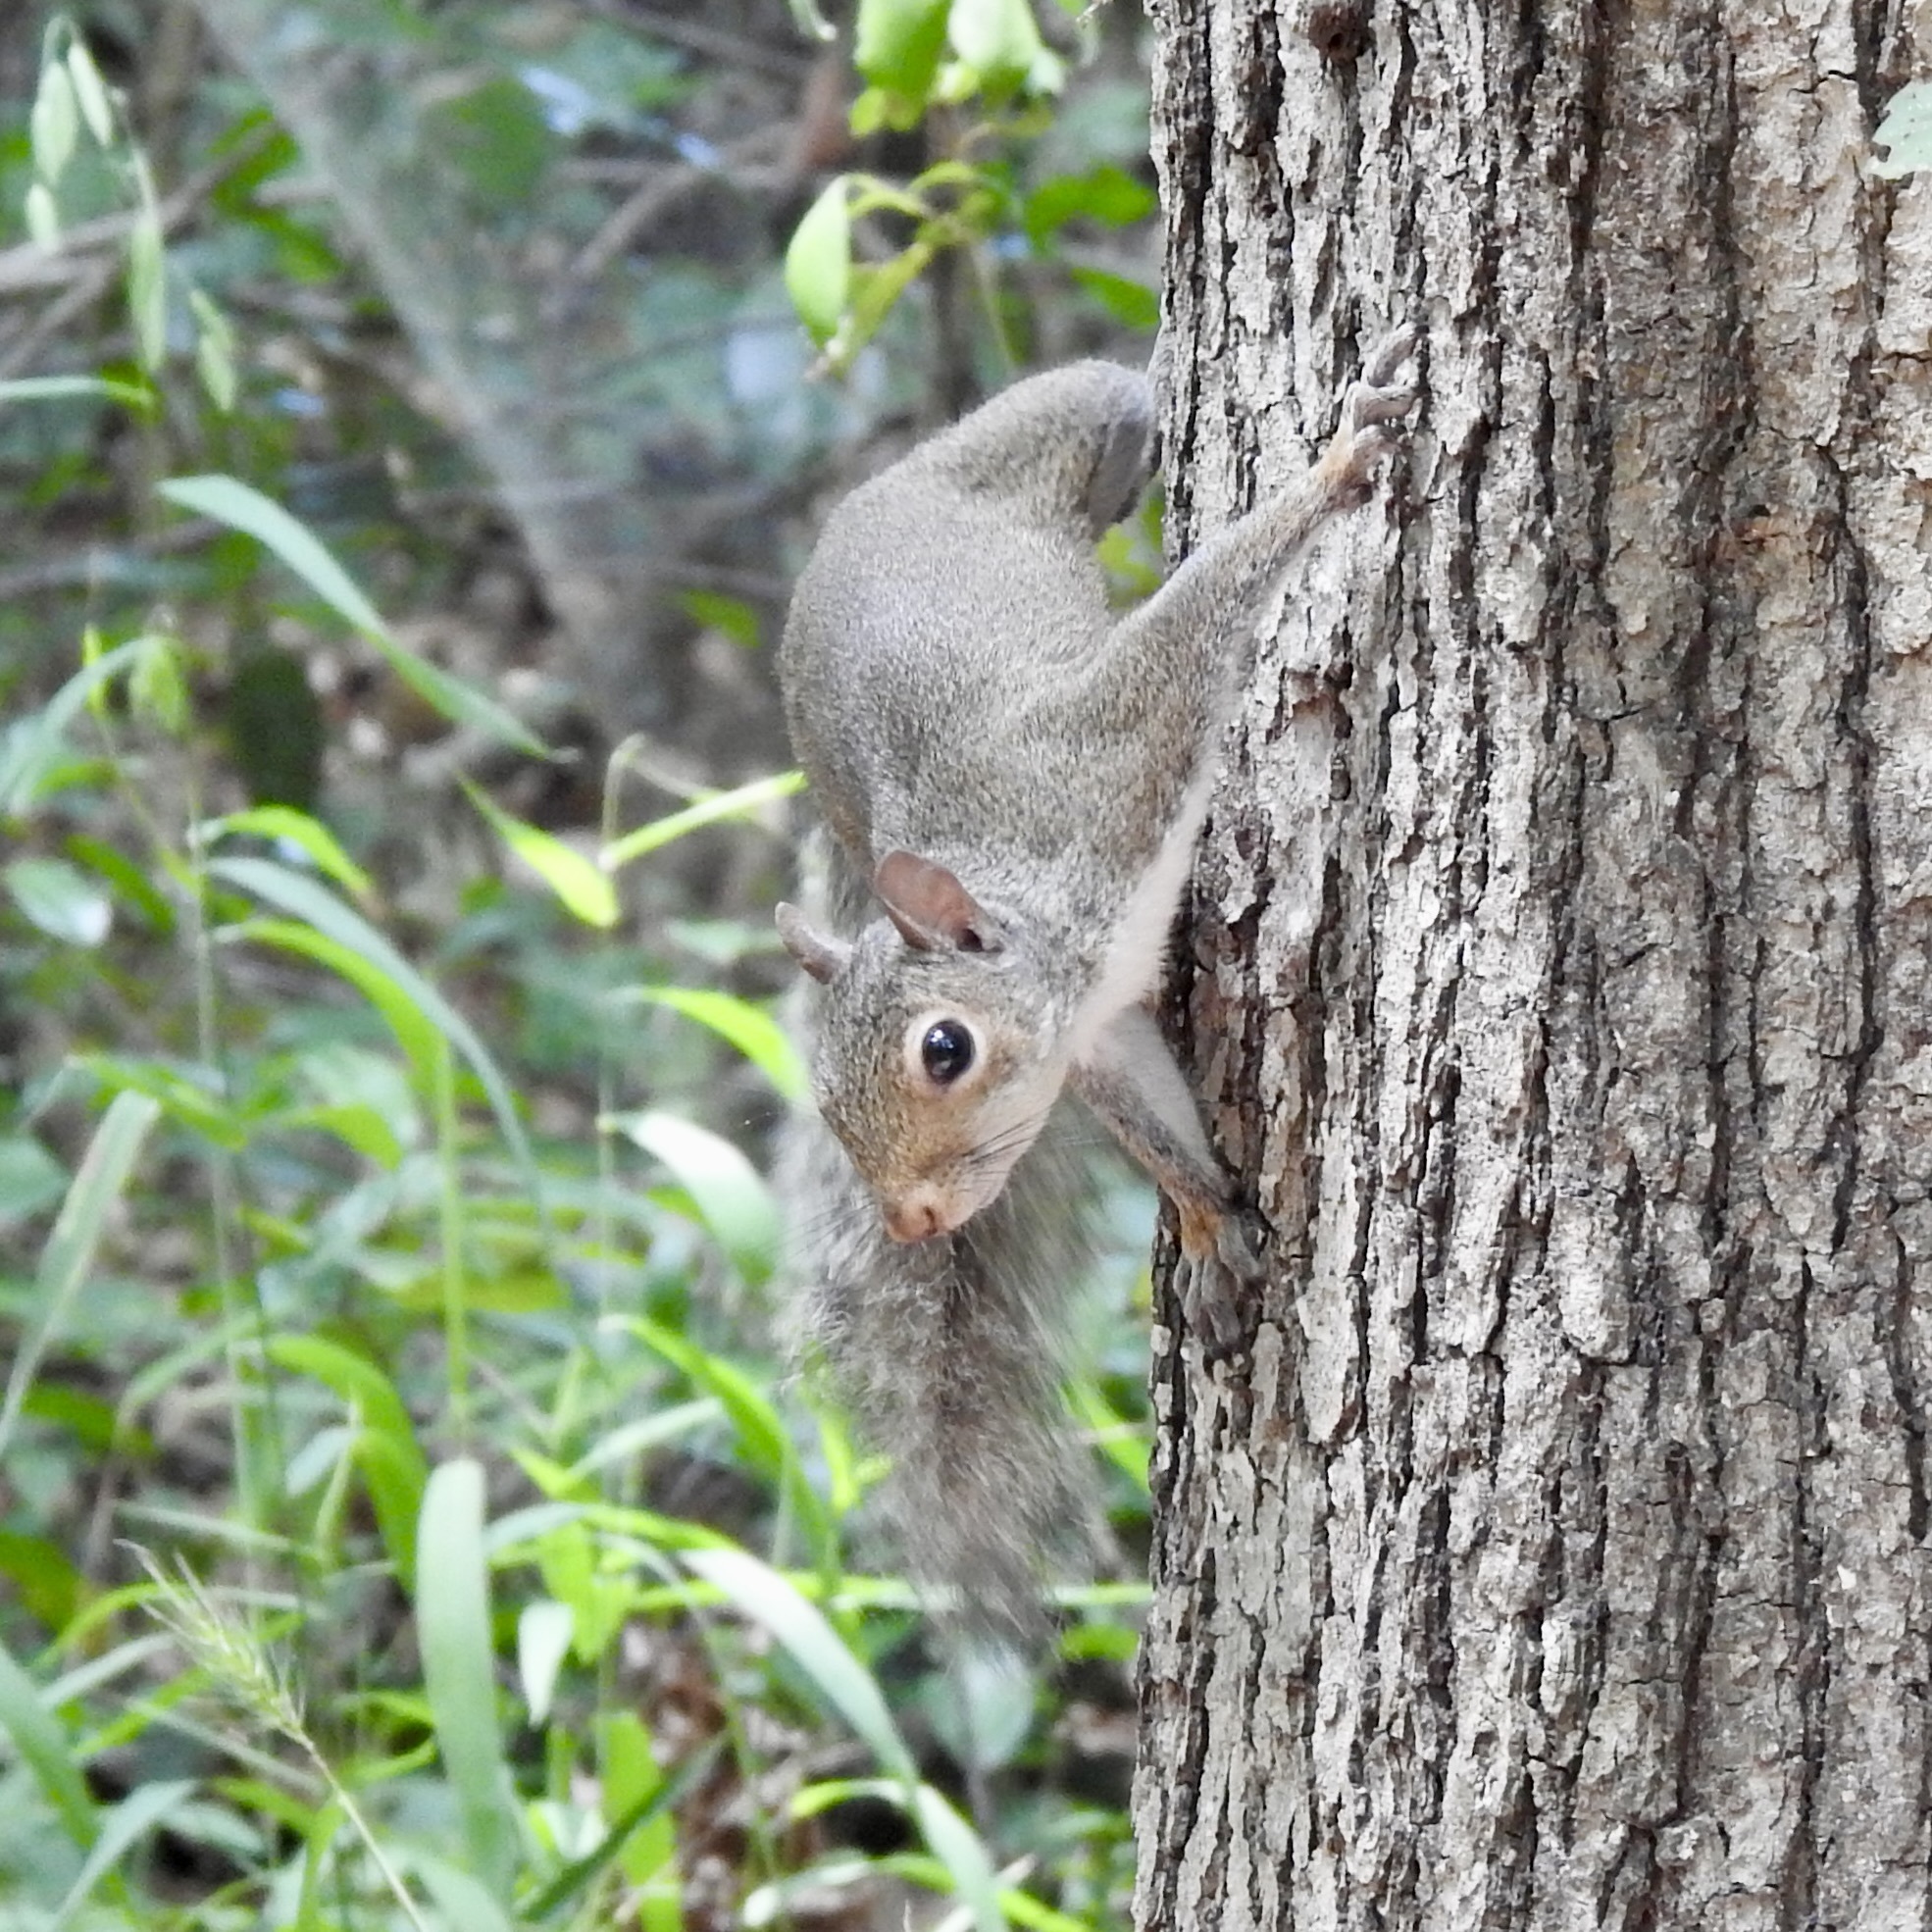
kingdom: Animalia
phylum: Chordata
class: Mammalia
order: Rodentia
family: Sciuridae
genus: Sciurus
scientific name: Sciurus carolinensis
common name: Eastern gray squirrel
